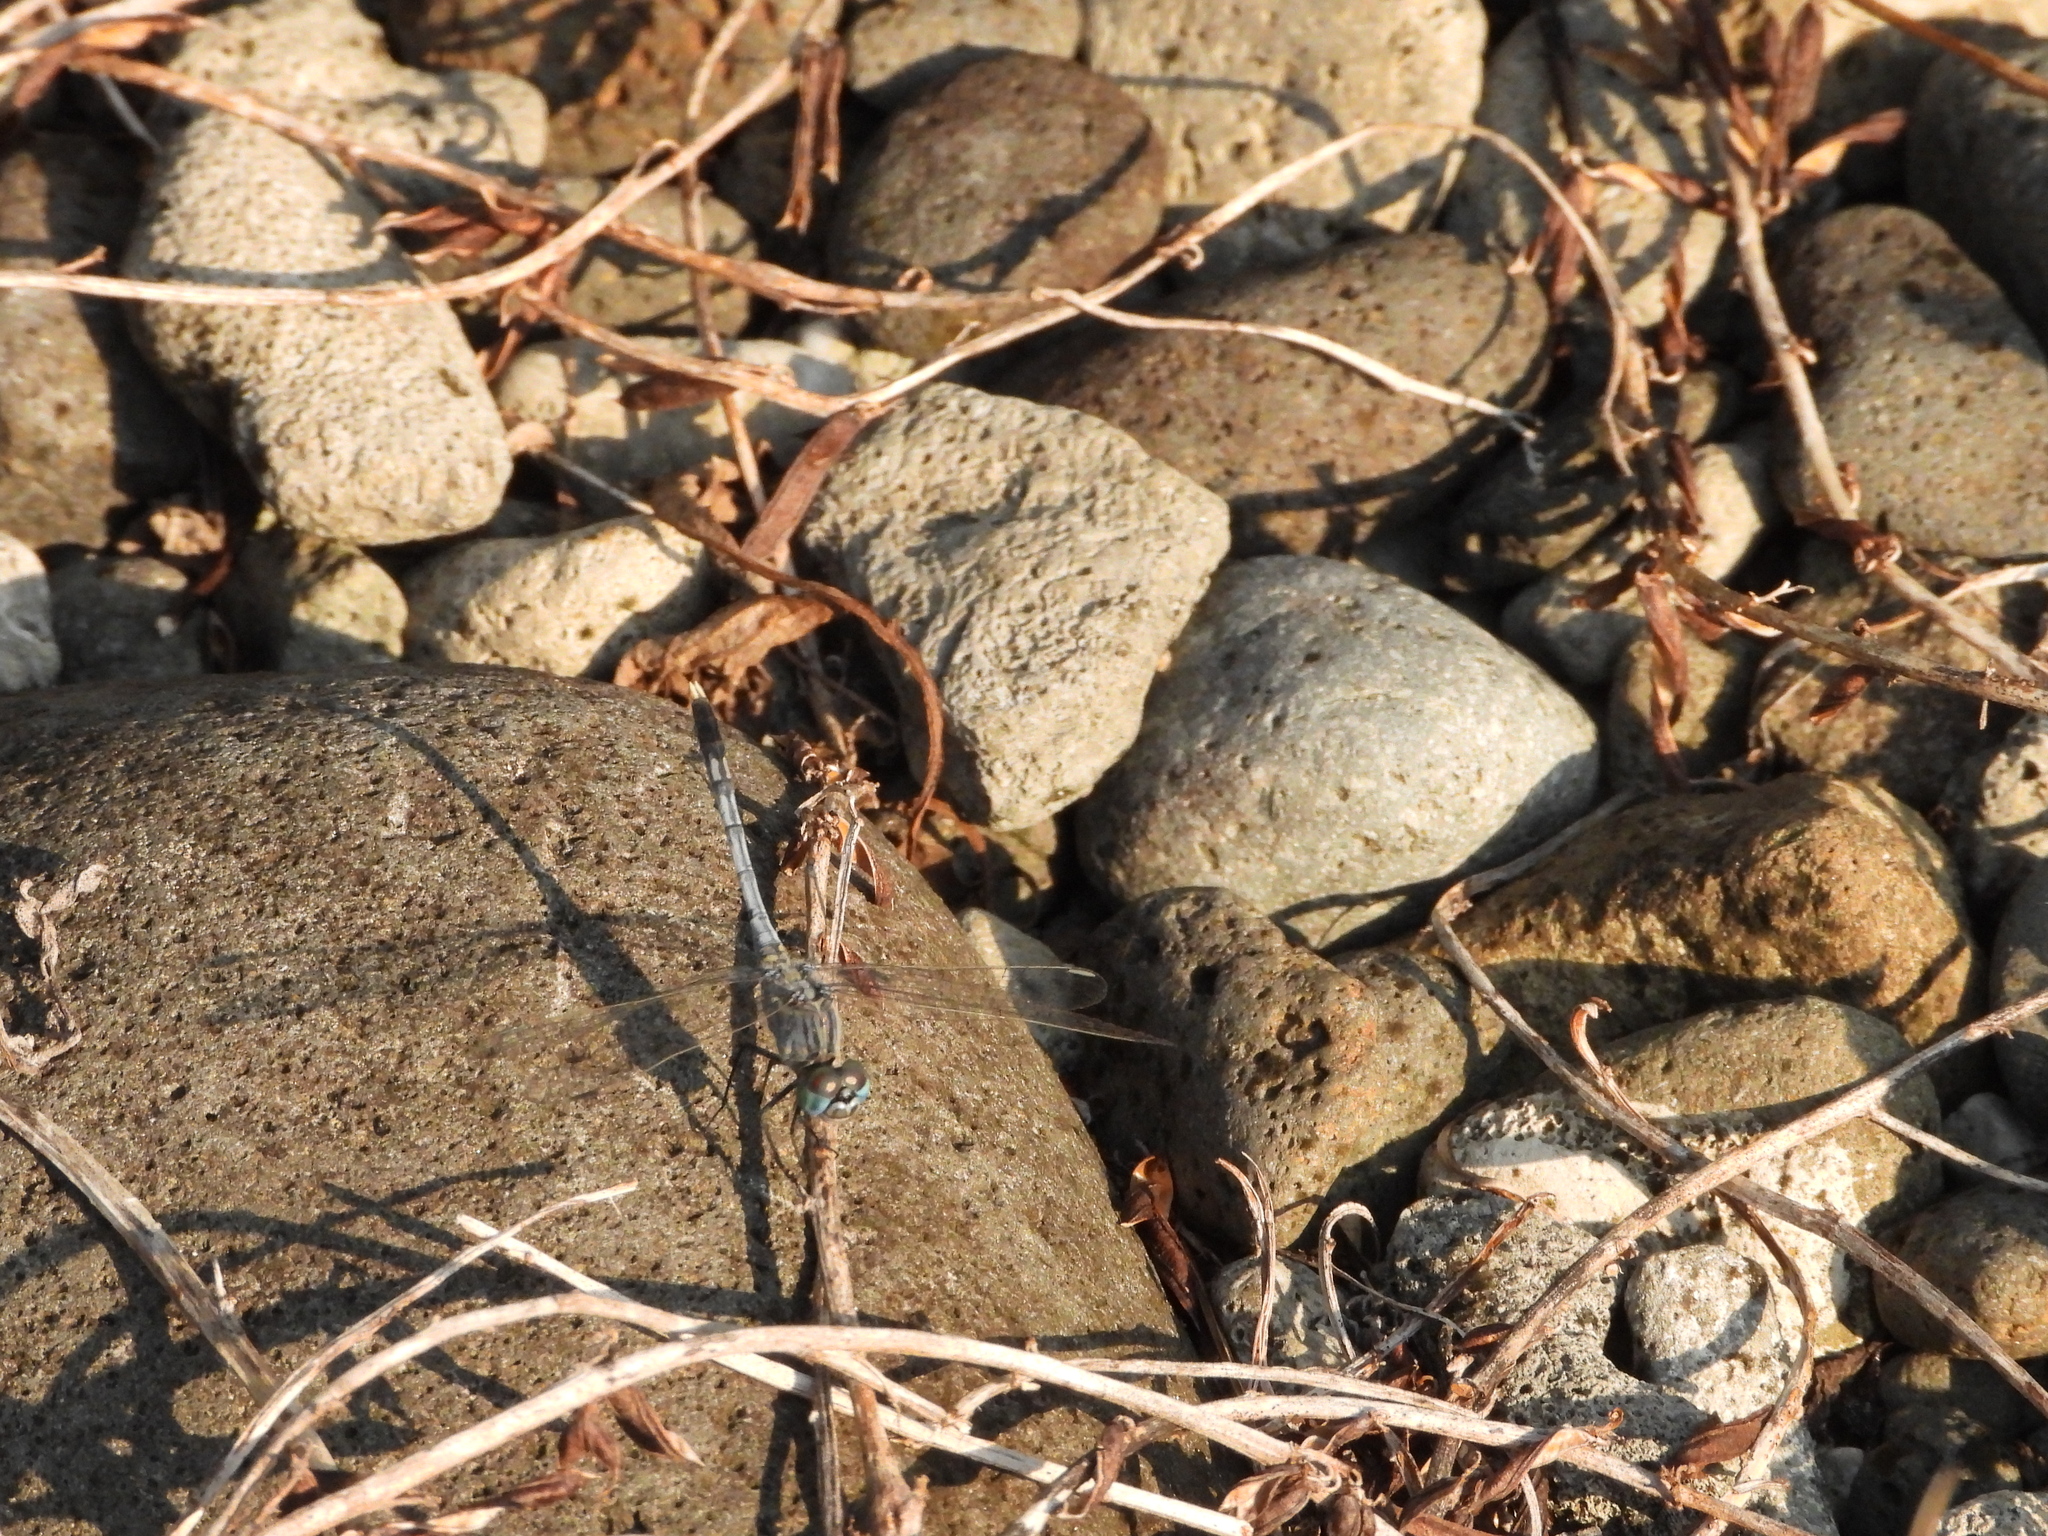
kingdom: Animalia
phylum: Arthropoda
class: Insecta
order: Odonata
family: Libellulidae
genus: Diplacodes
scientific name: Diplacodes trivialis
